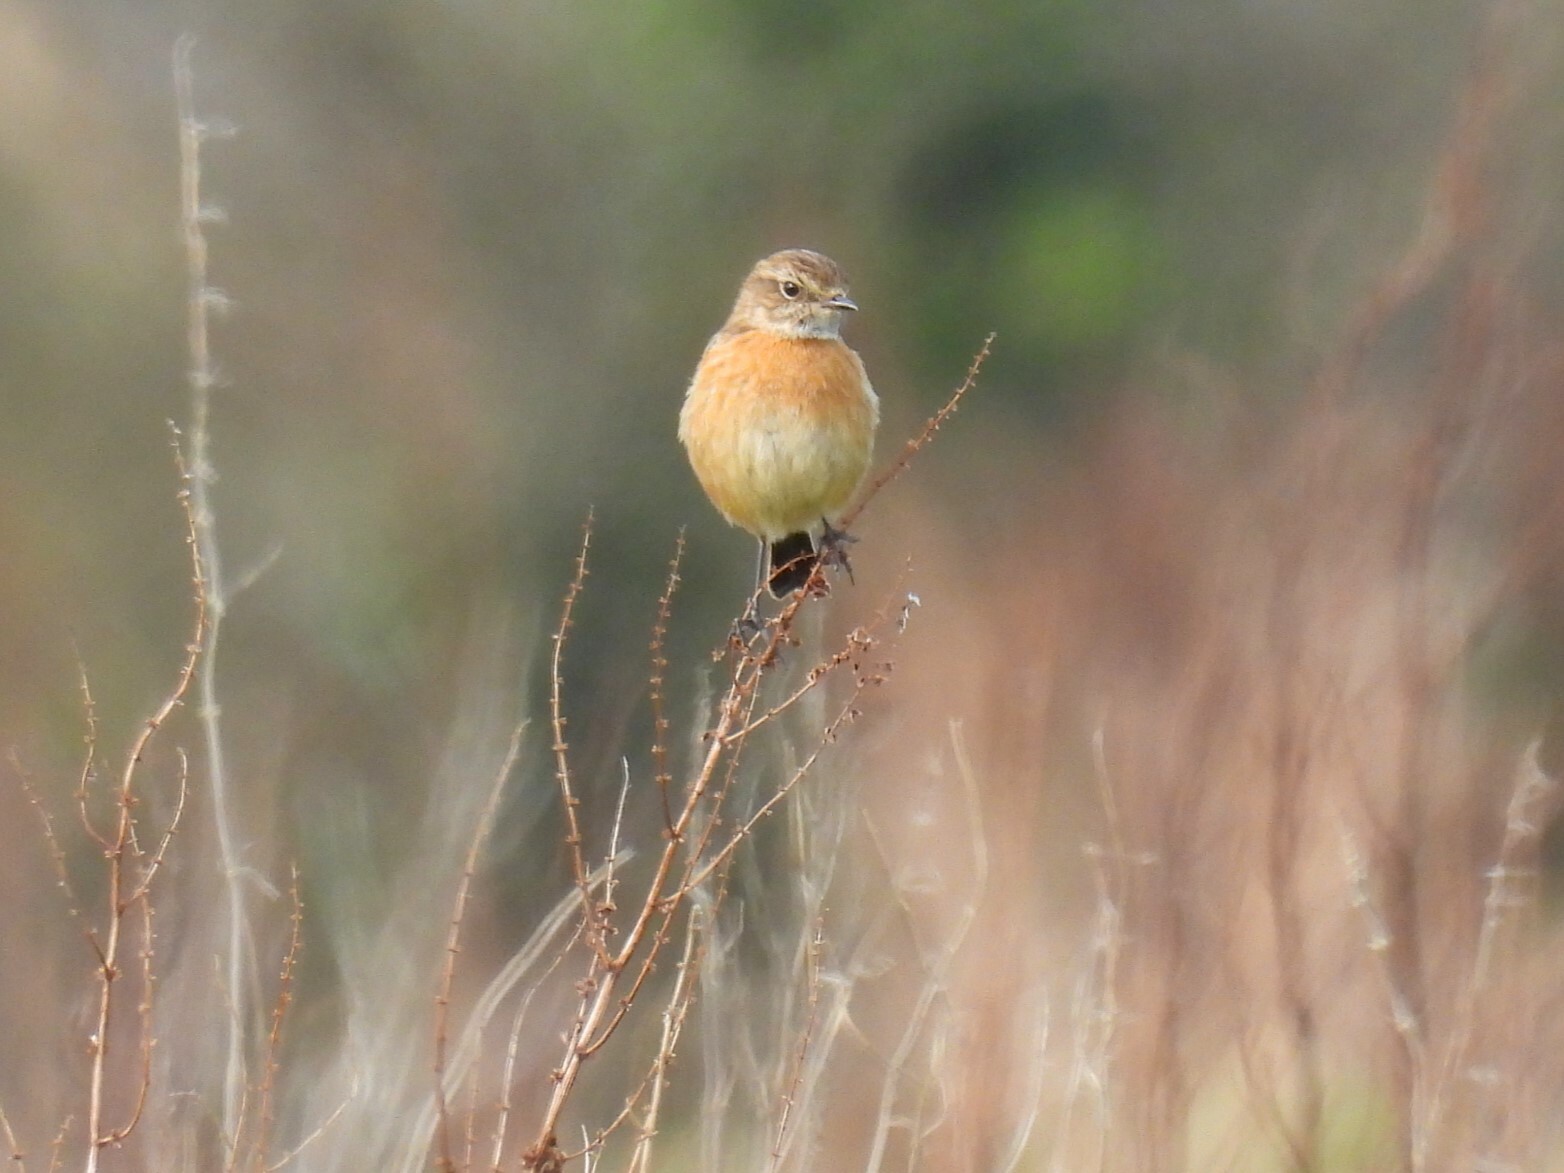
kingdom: Animalia
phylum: Chordata
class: Aves
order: Passeriformes
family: Muscicapidae
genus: Saxicola
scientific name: Saxicola rubicola
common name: European stonechat
